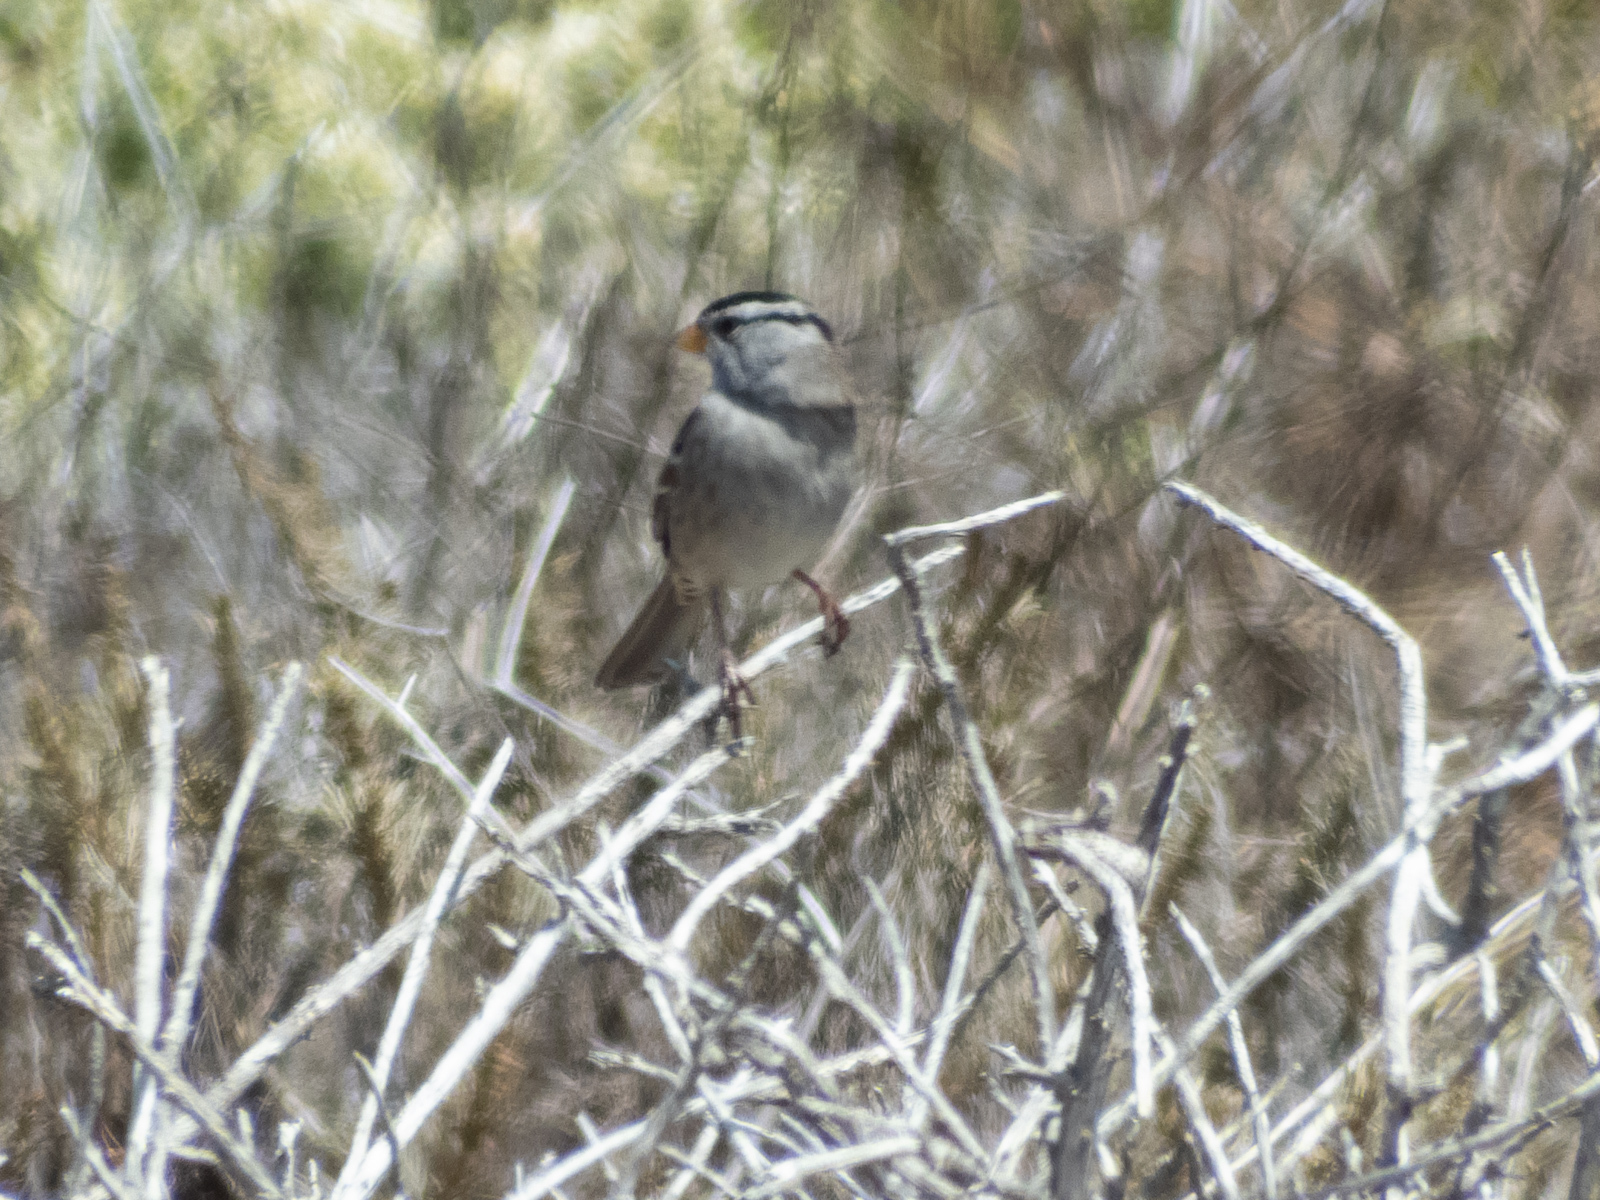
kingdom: Animalia
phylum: Chordata
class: Aves
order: Passeriformes
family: Passerellidae
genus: Zonotrichia
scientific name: Zonotrichia leucophrys
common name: White-crowned sparrow
